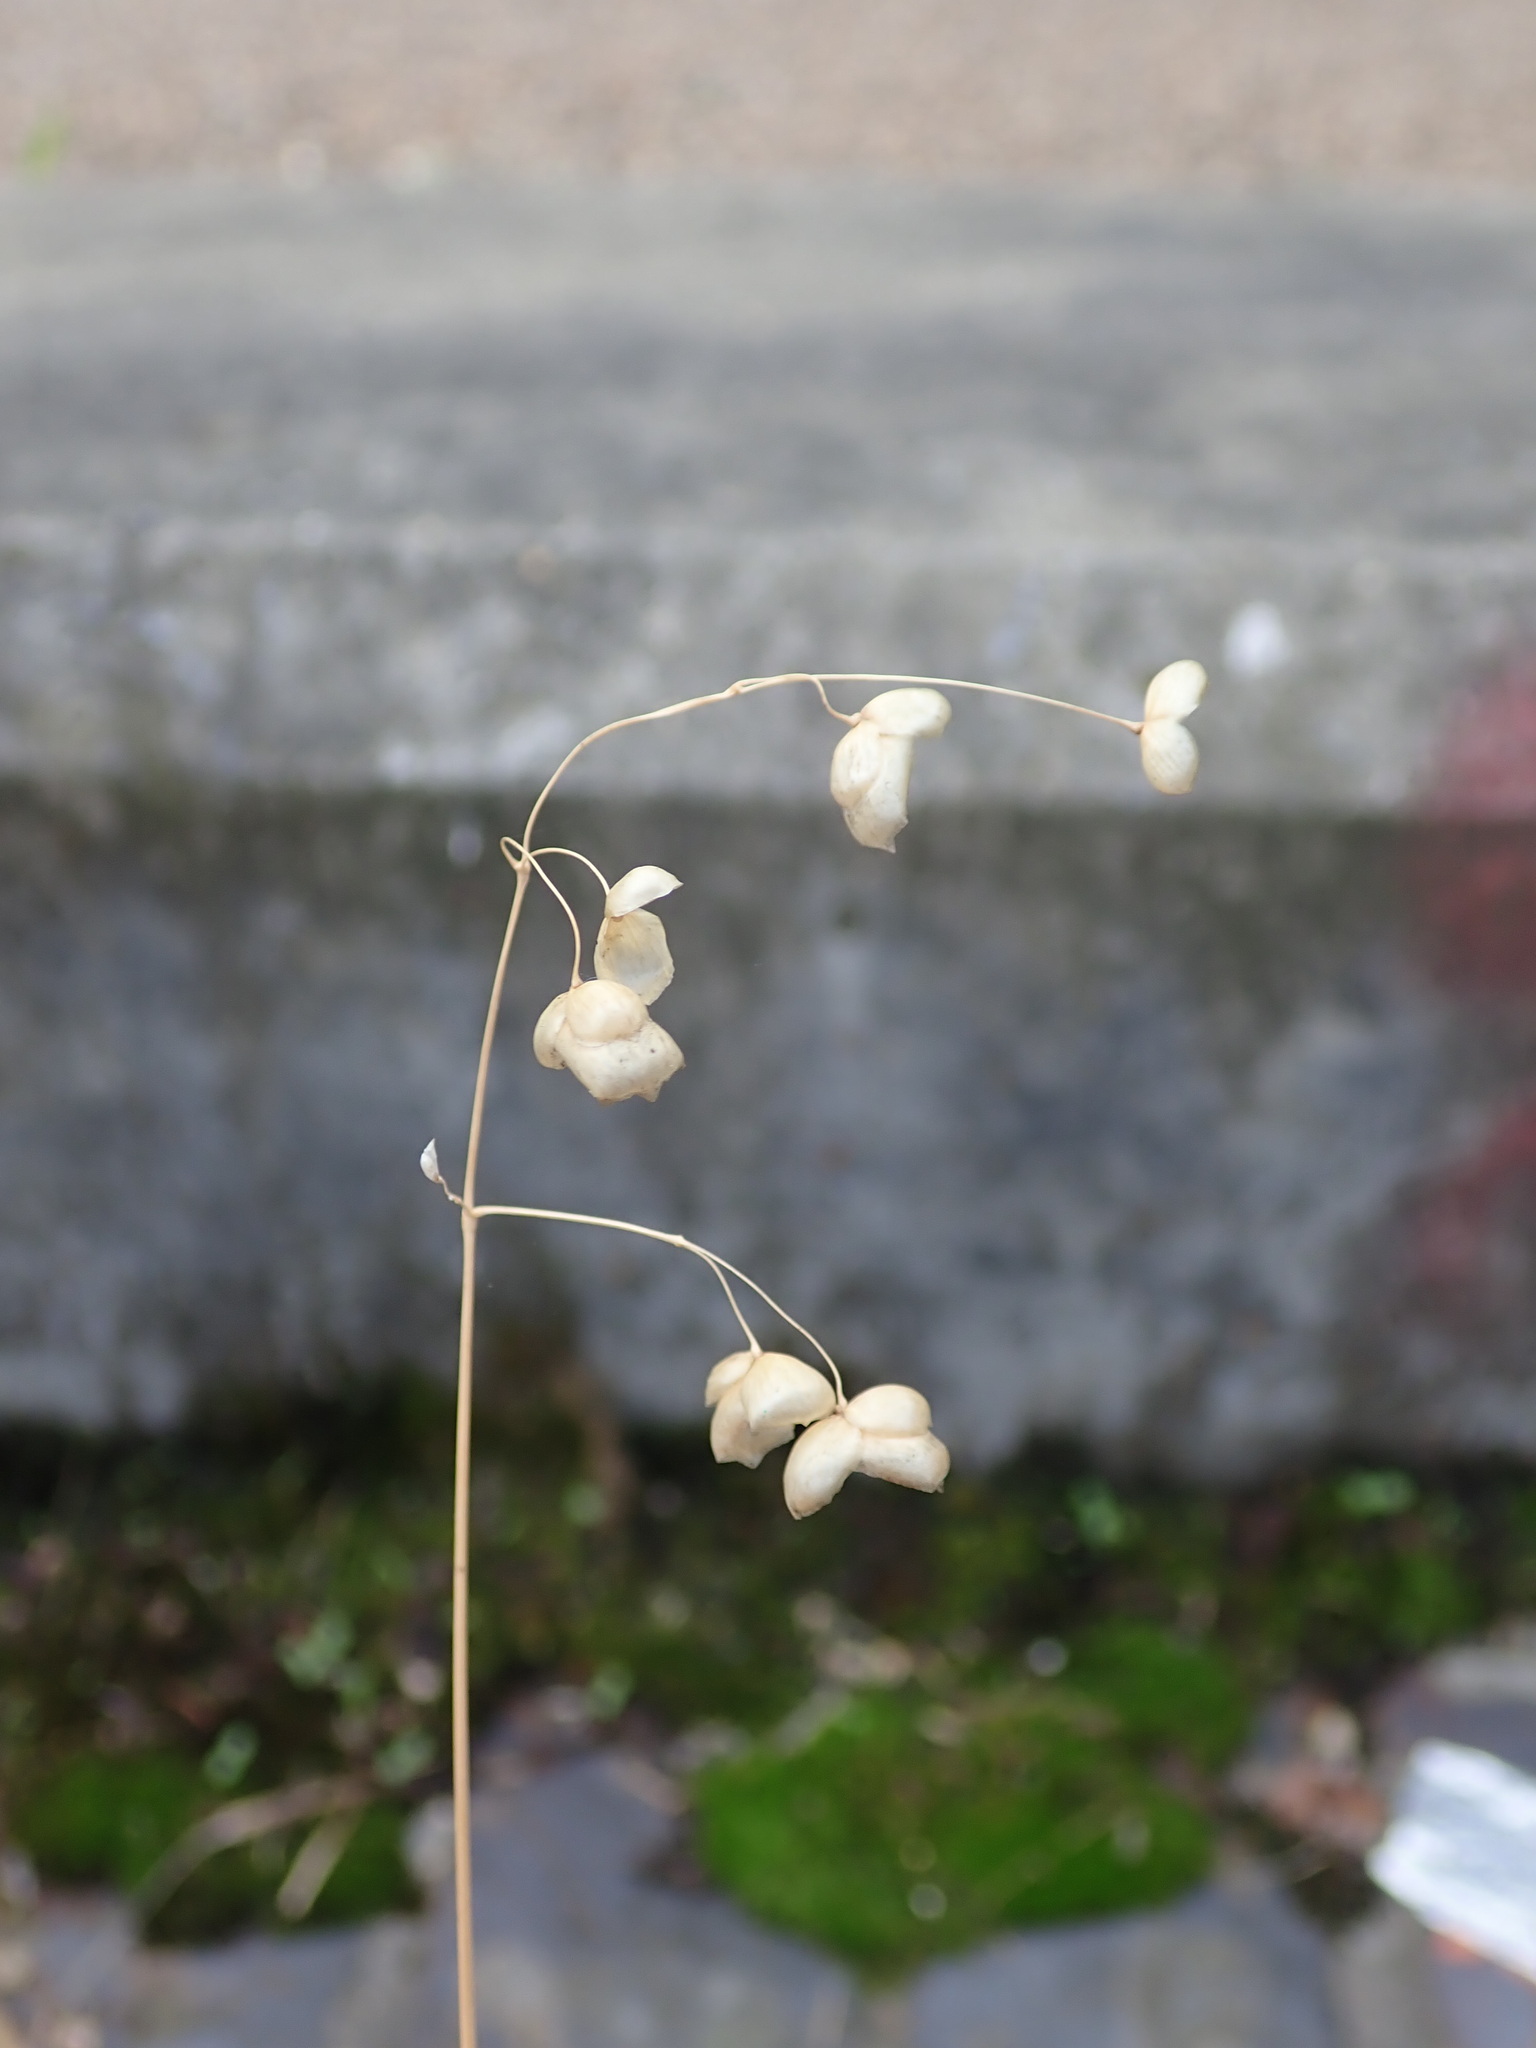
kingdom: Plantae
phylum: Tracheophyta
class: Liliopsida
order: Poales
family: Poaceae
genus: Briza
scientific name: Briza maxima
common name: Big quakinggrass
